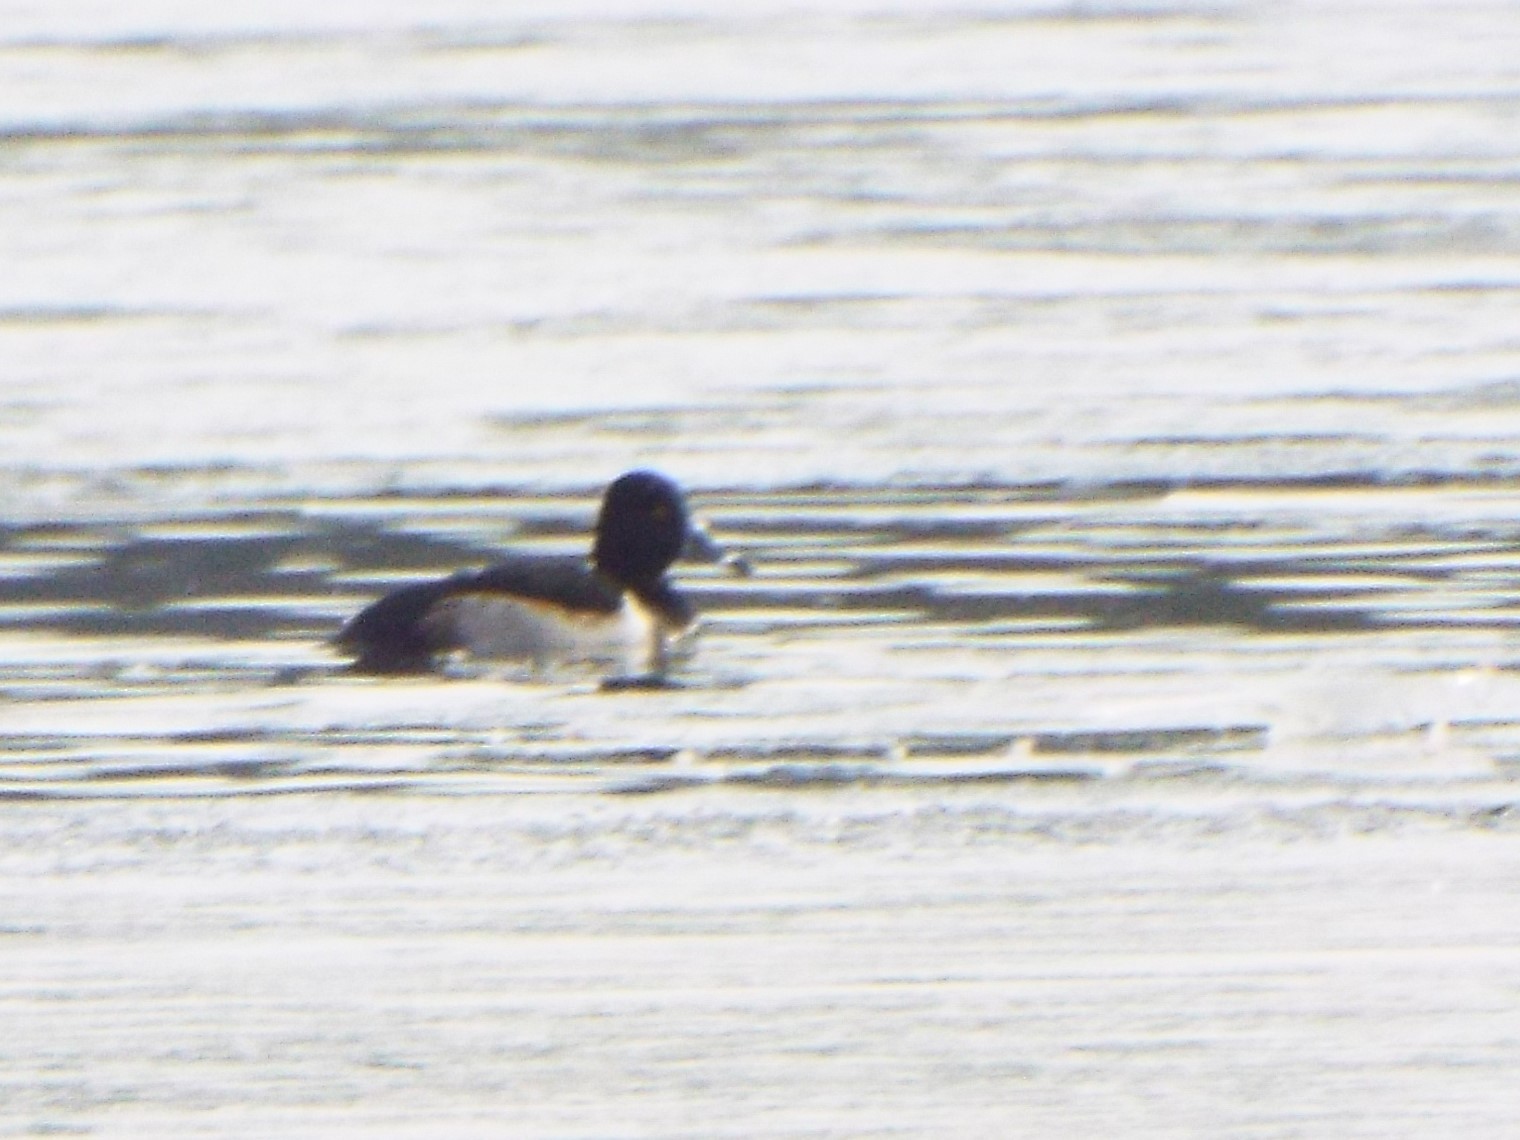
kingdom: Animalia
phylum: Chordata
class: Aves
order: Anseriformes
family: Anatidae
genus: Aythya
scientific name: Aythya collaris
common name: Ring-necked duck
